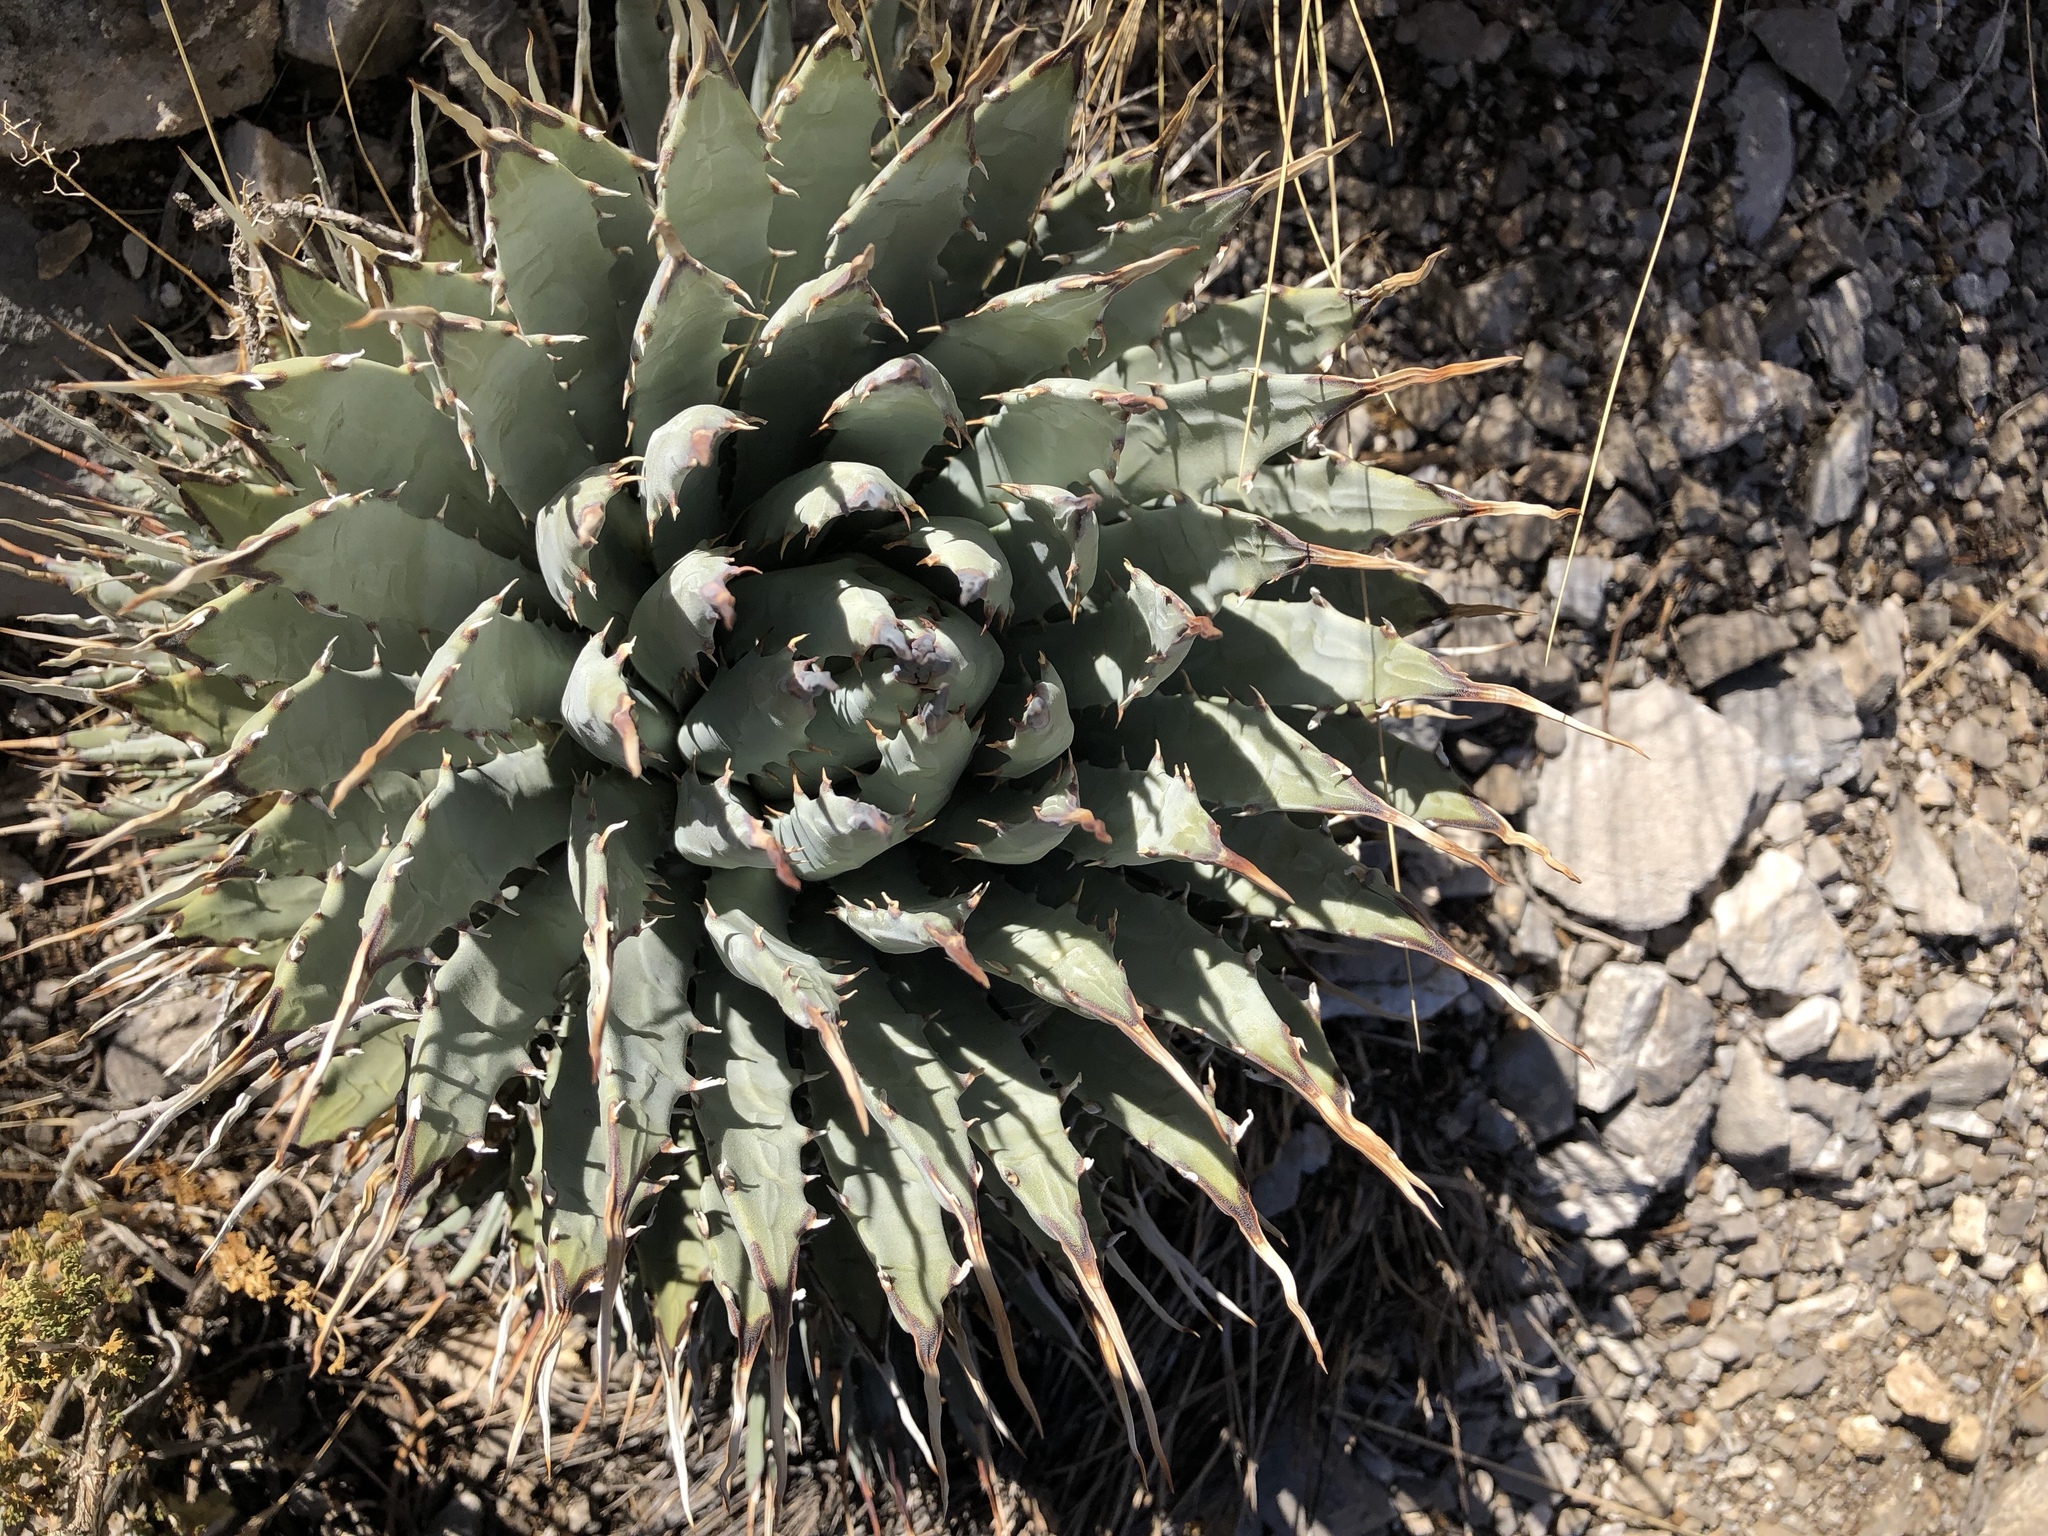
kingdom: Plantae
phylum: Tracheophyta
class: Liliopsida
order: Asparagales
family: Asparagaceae
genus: Agave
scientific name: Agave utahensis
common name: Utah agave
